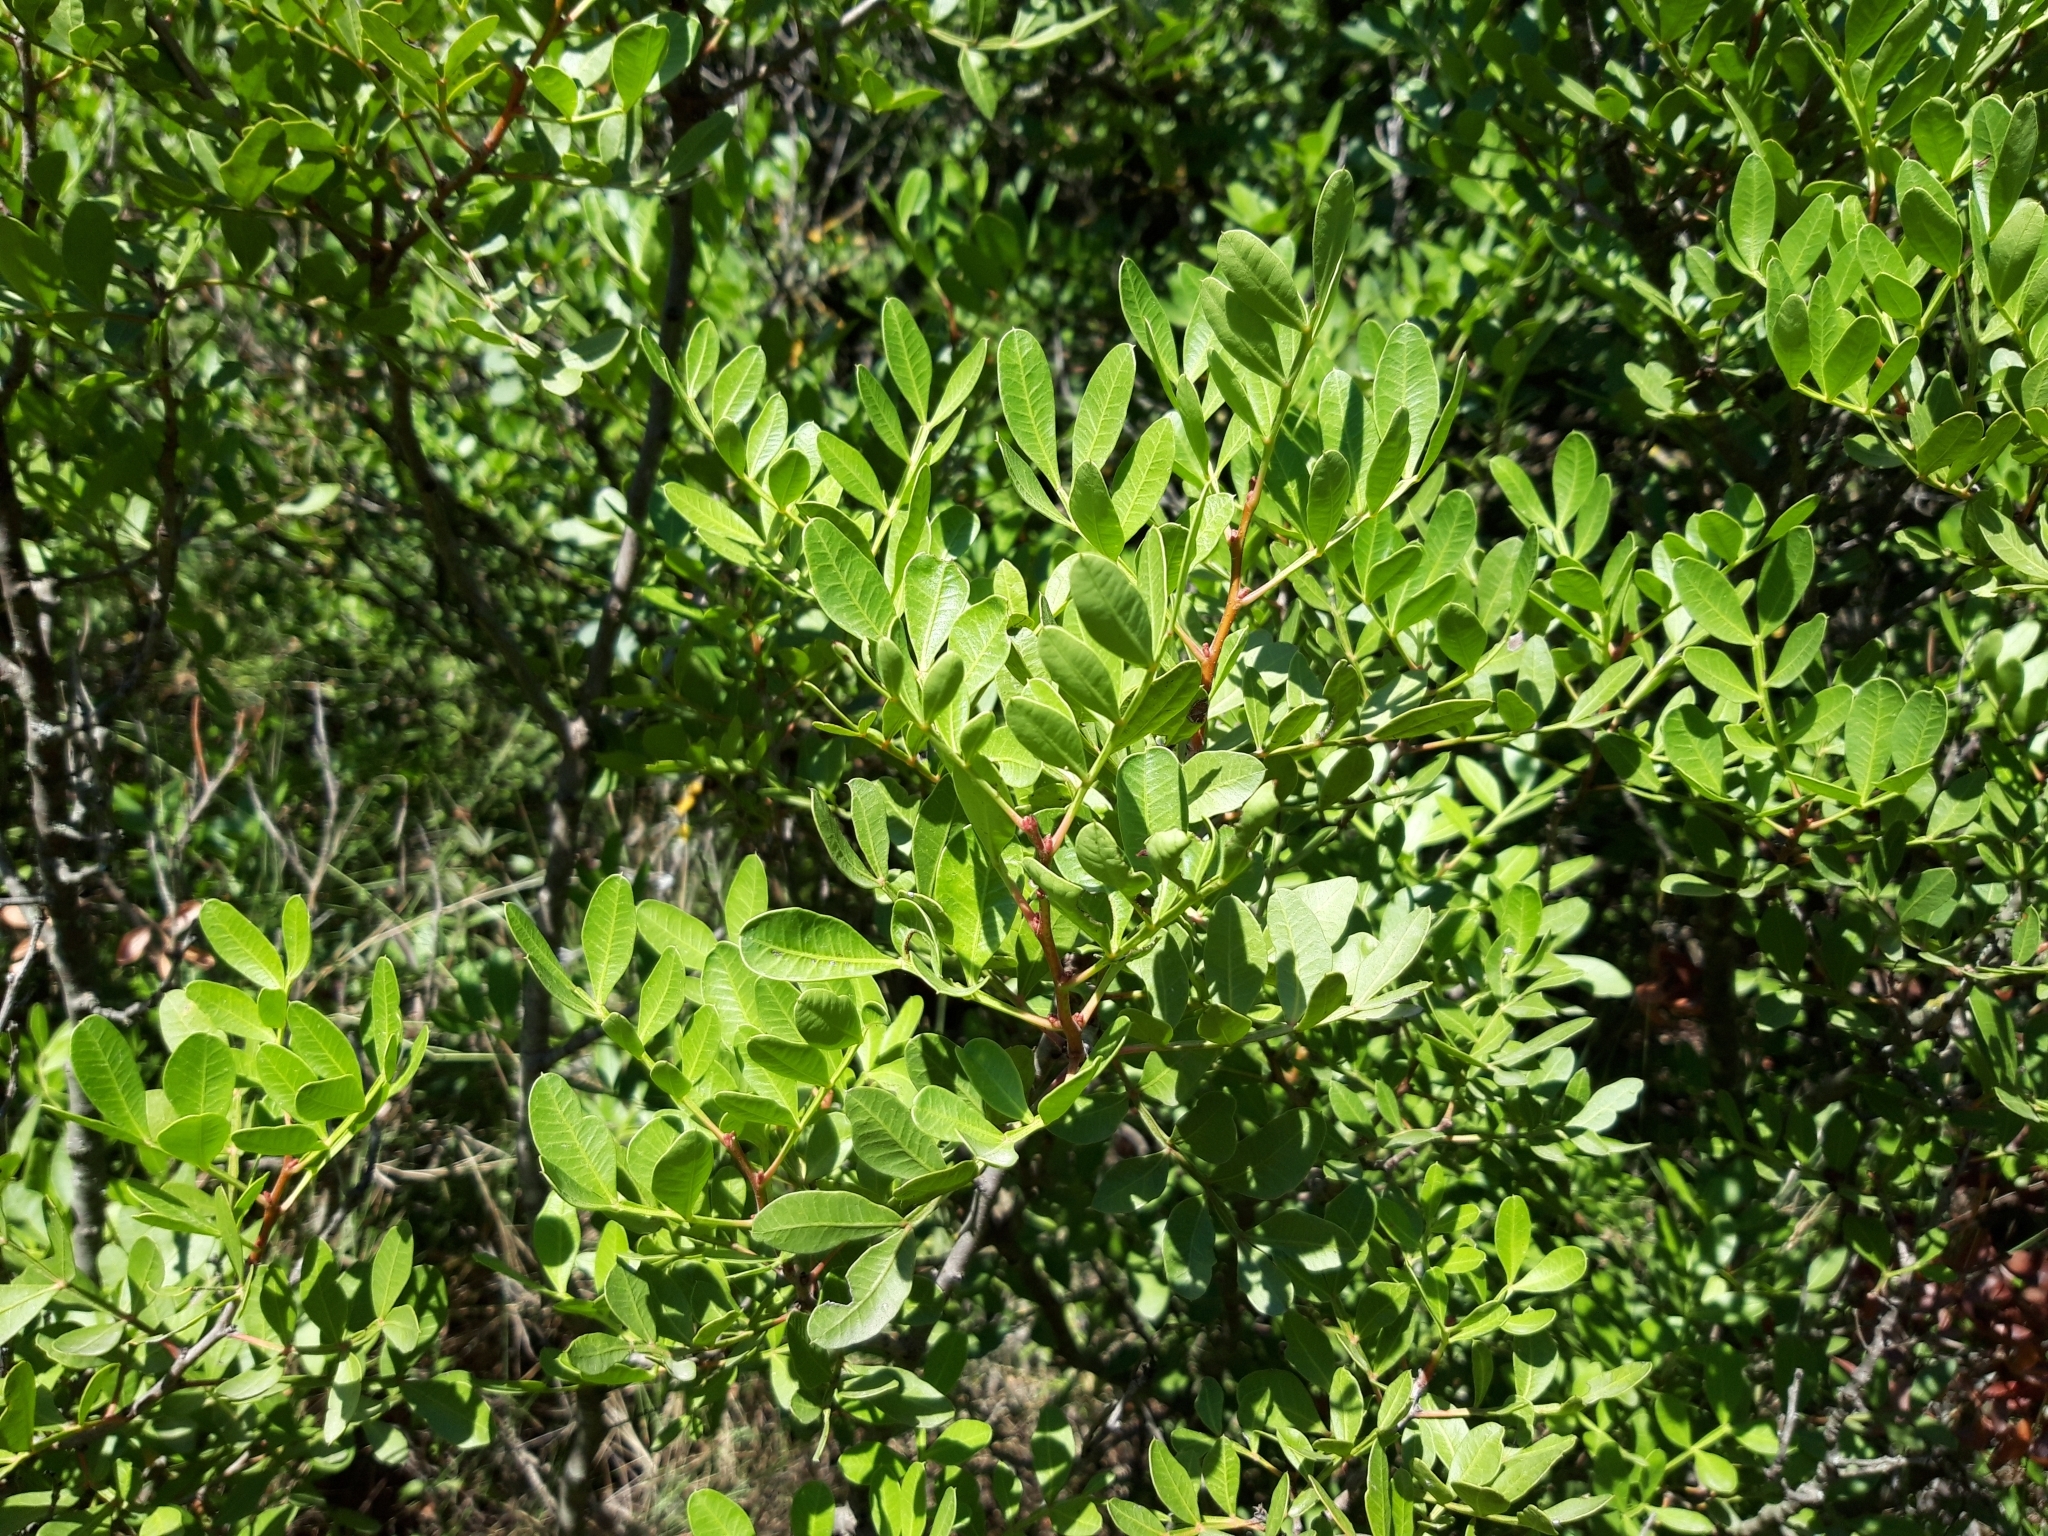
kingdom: Plantae
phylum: Tracheophyta
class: Magnoliopsida
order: Sapindales
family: Anacardiaceae
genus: Pistacia
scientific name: Pistacia lentiscus
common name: Lentisk
